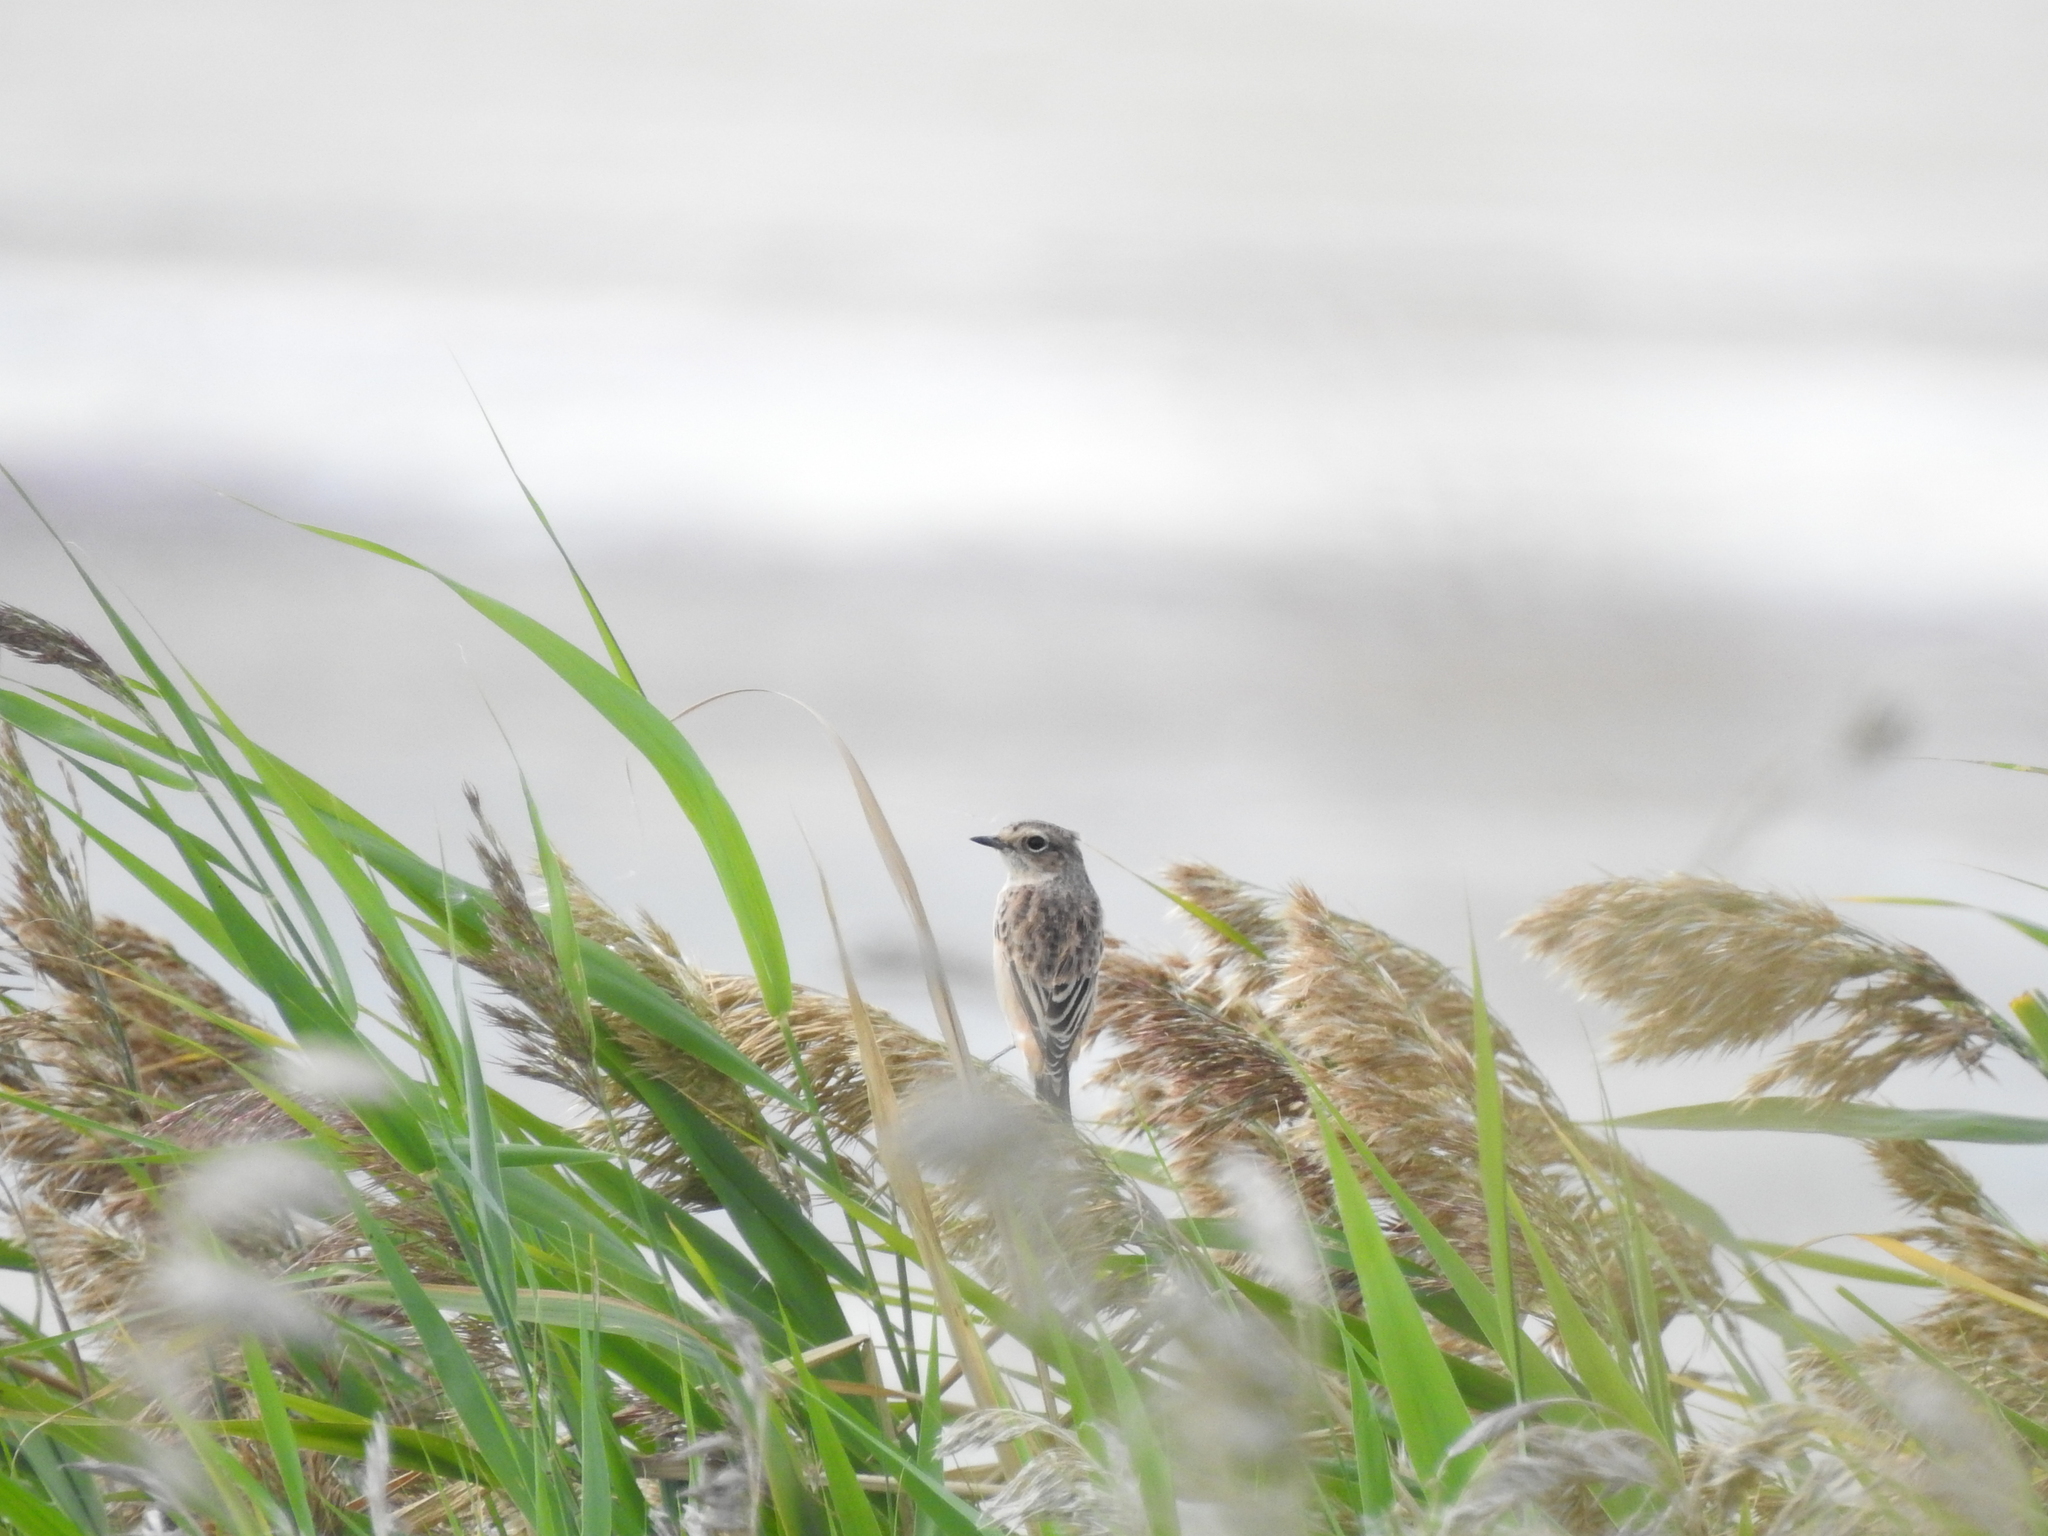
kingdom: Animalia
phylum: Chordata
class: Aves
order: Passeriformes
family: Muscicapidae
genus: Saxicola
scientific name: Saxicola maurus
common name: Siberian stonechat
